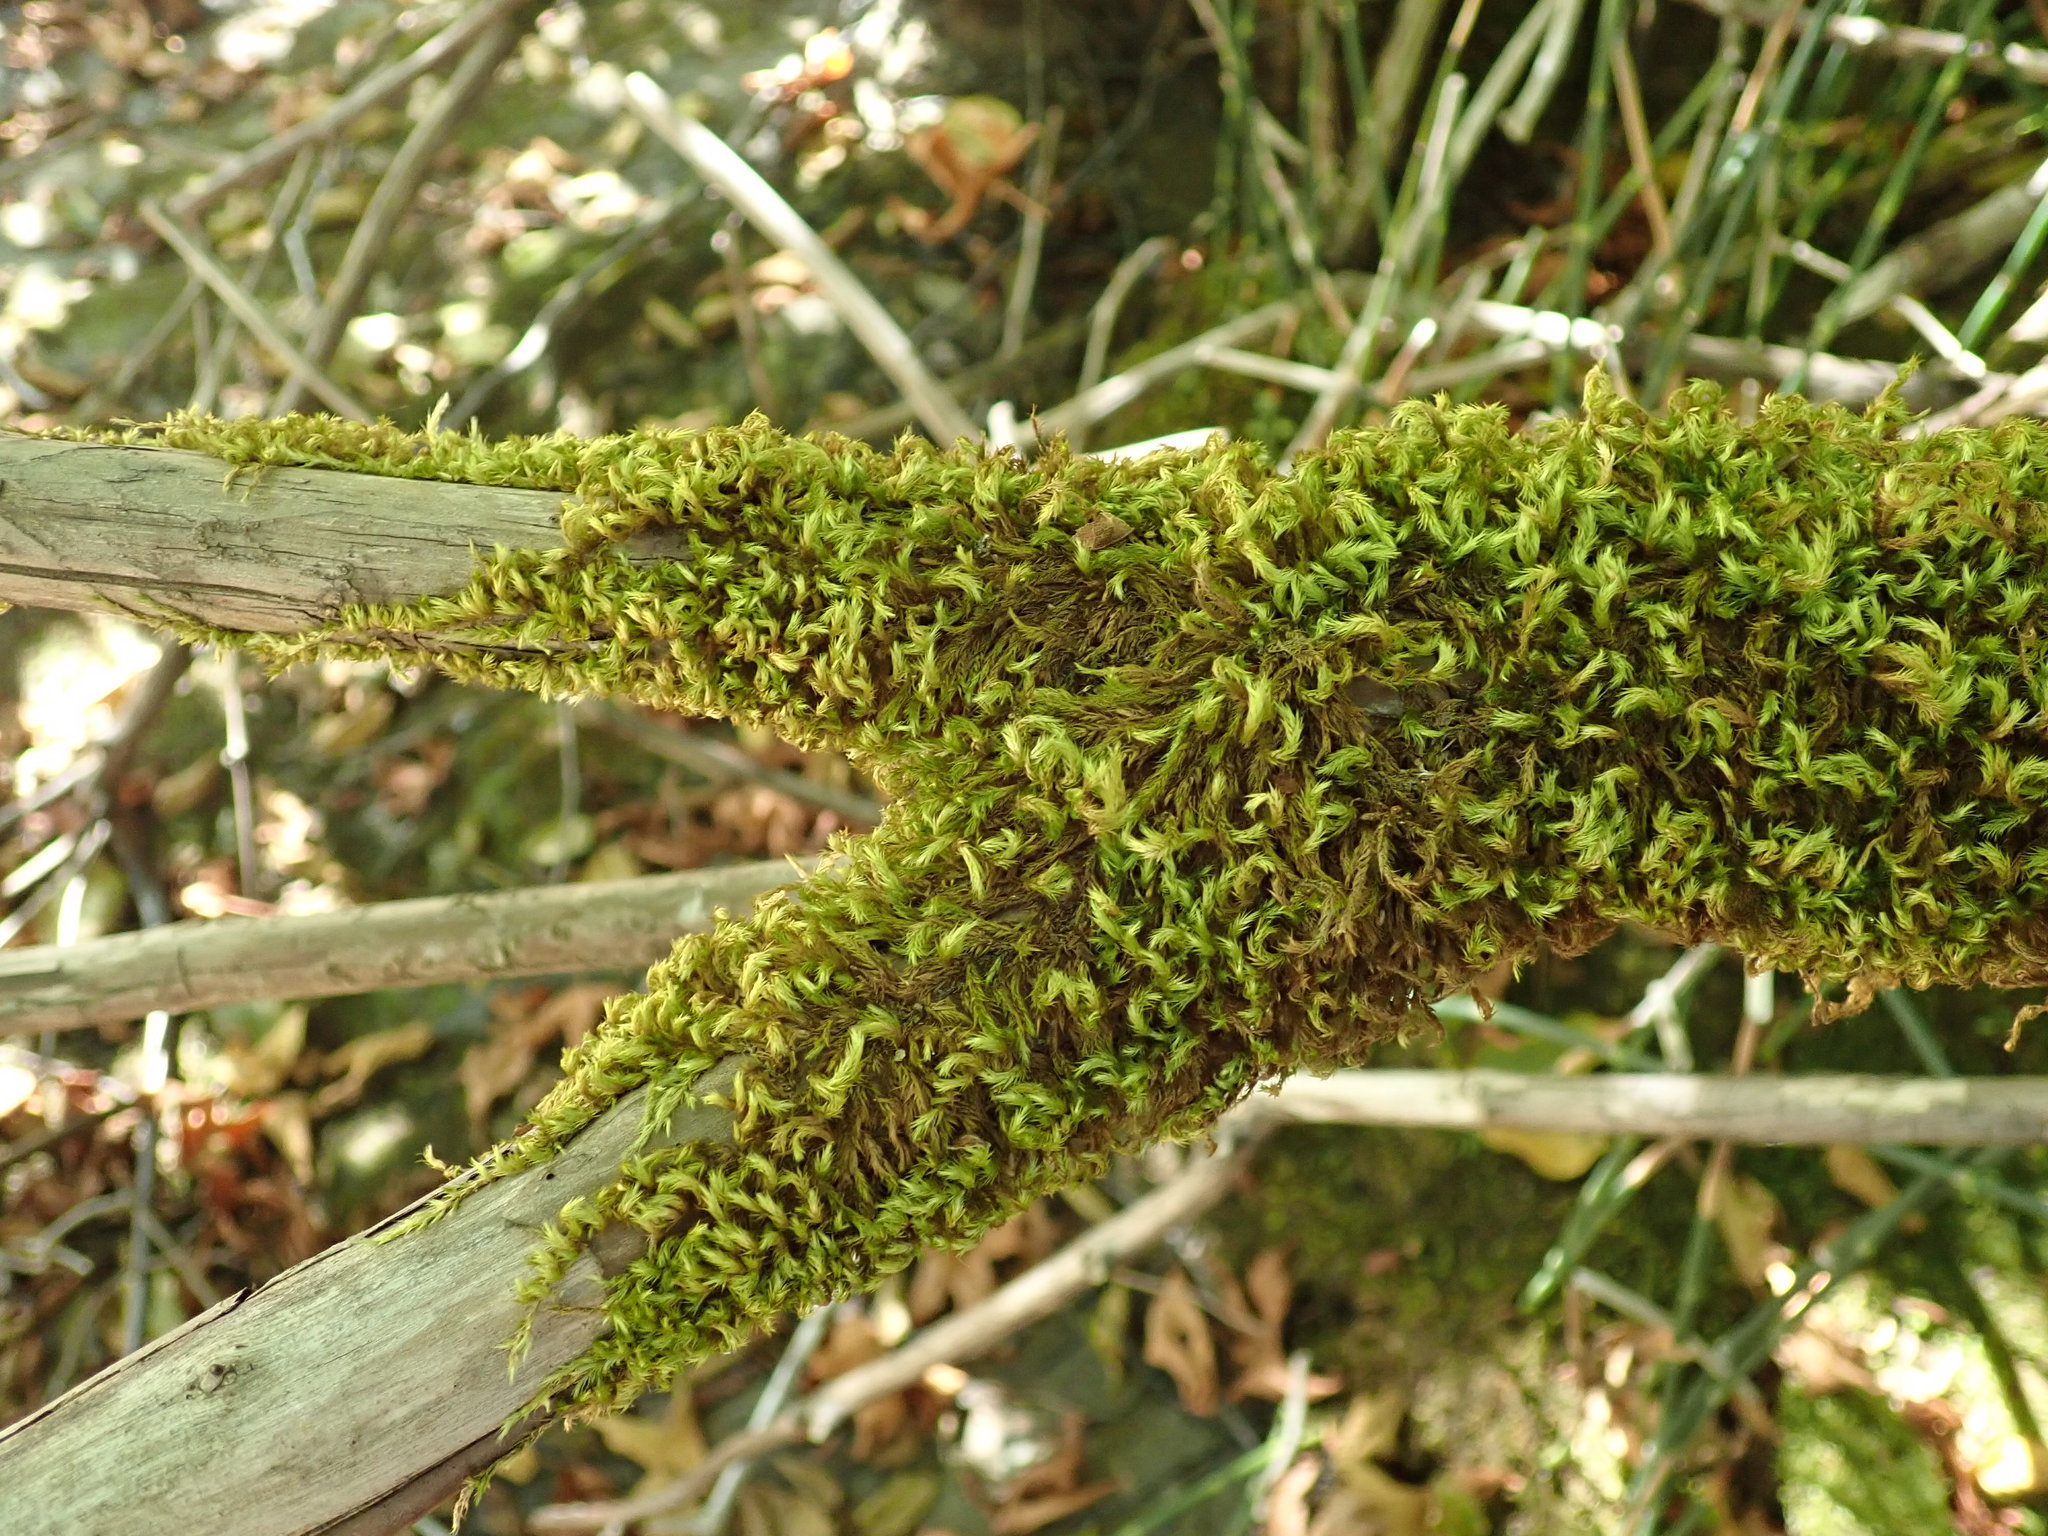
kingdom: Plantae
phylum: Bryophyta
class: Bryopsida
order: Hypnales
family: Brachytheciaceae
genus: Homalothecium
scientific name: Homalothecium fulgescens
